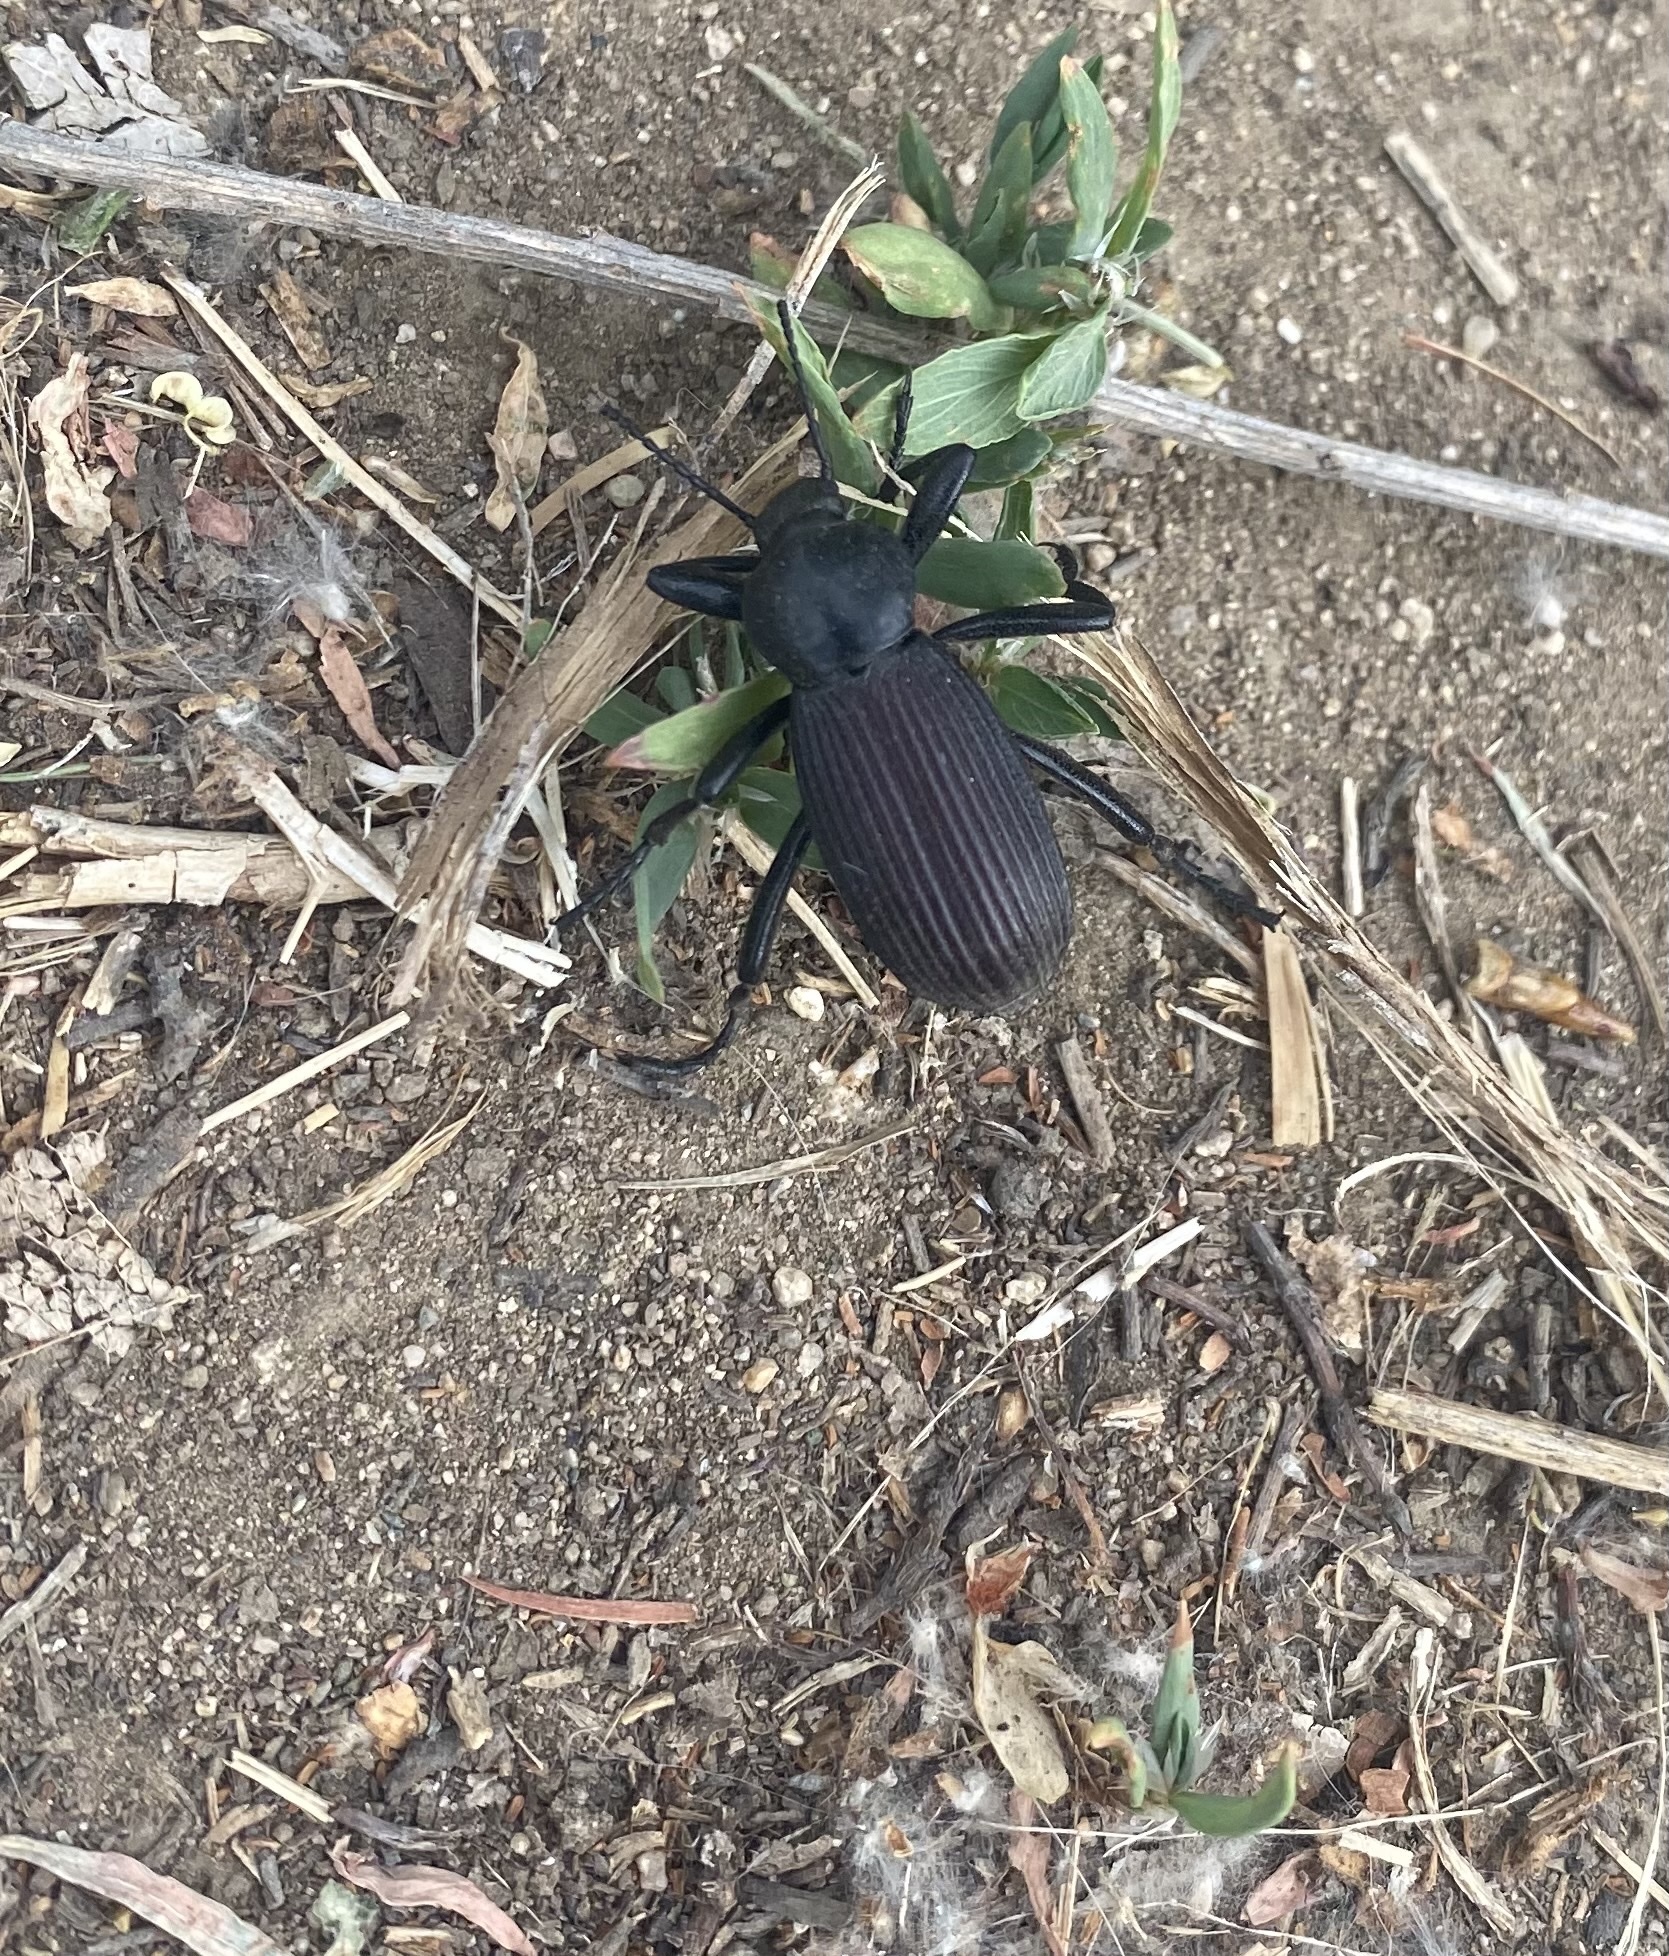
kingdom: Animalia
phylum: Arthropoda
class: Insecta
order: Coleoptera
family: Tenebrionidae
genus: Eleodes
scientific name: Eleodes obscura
